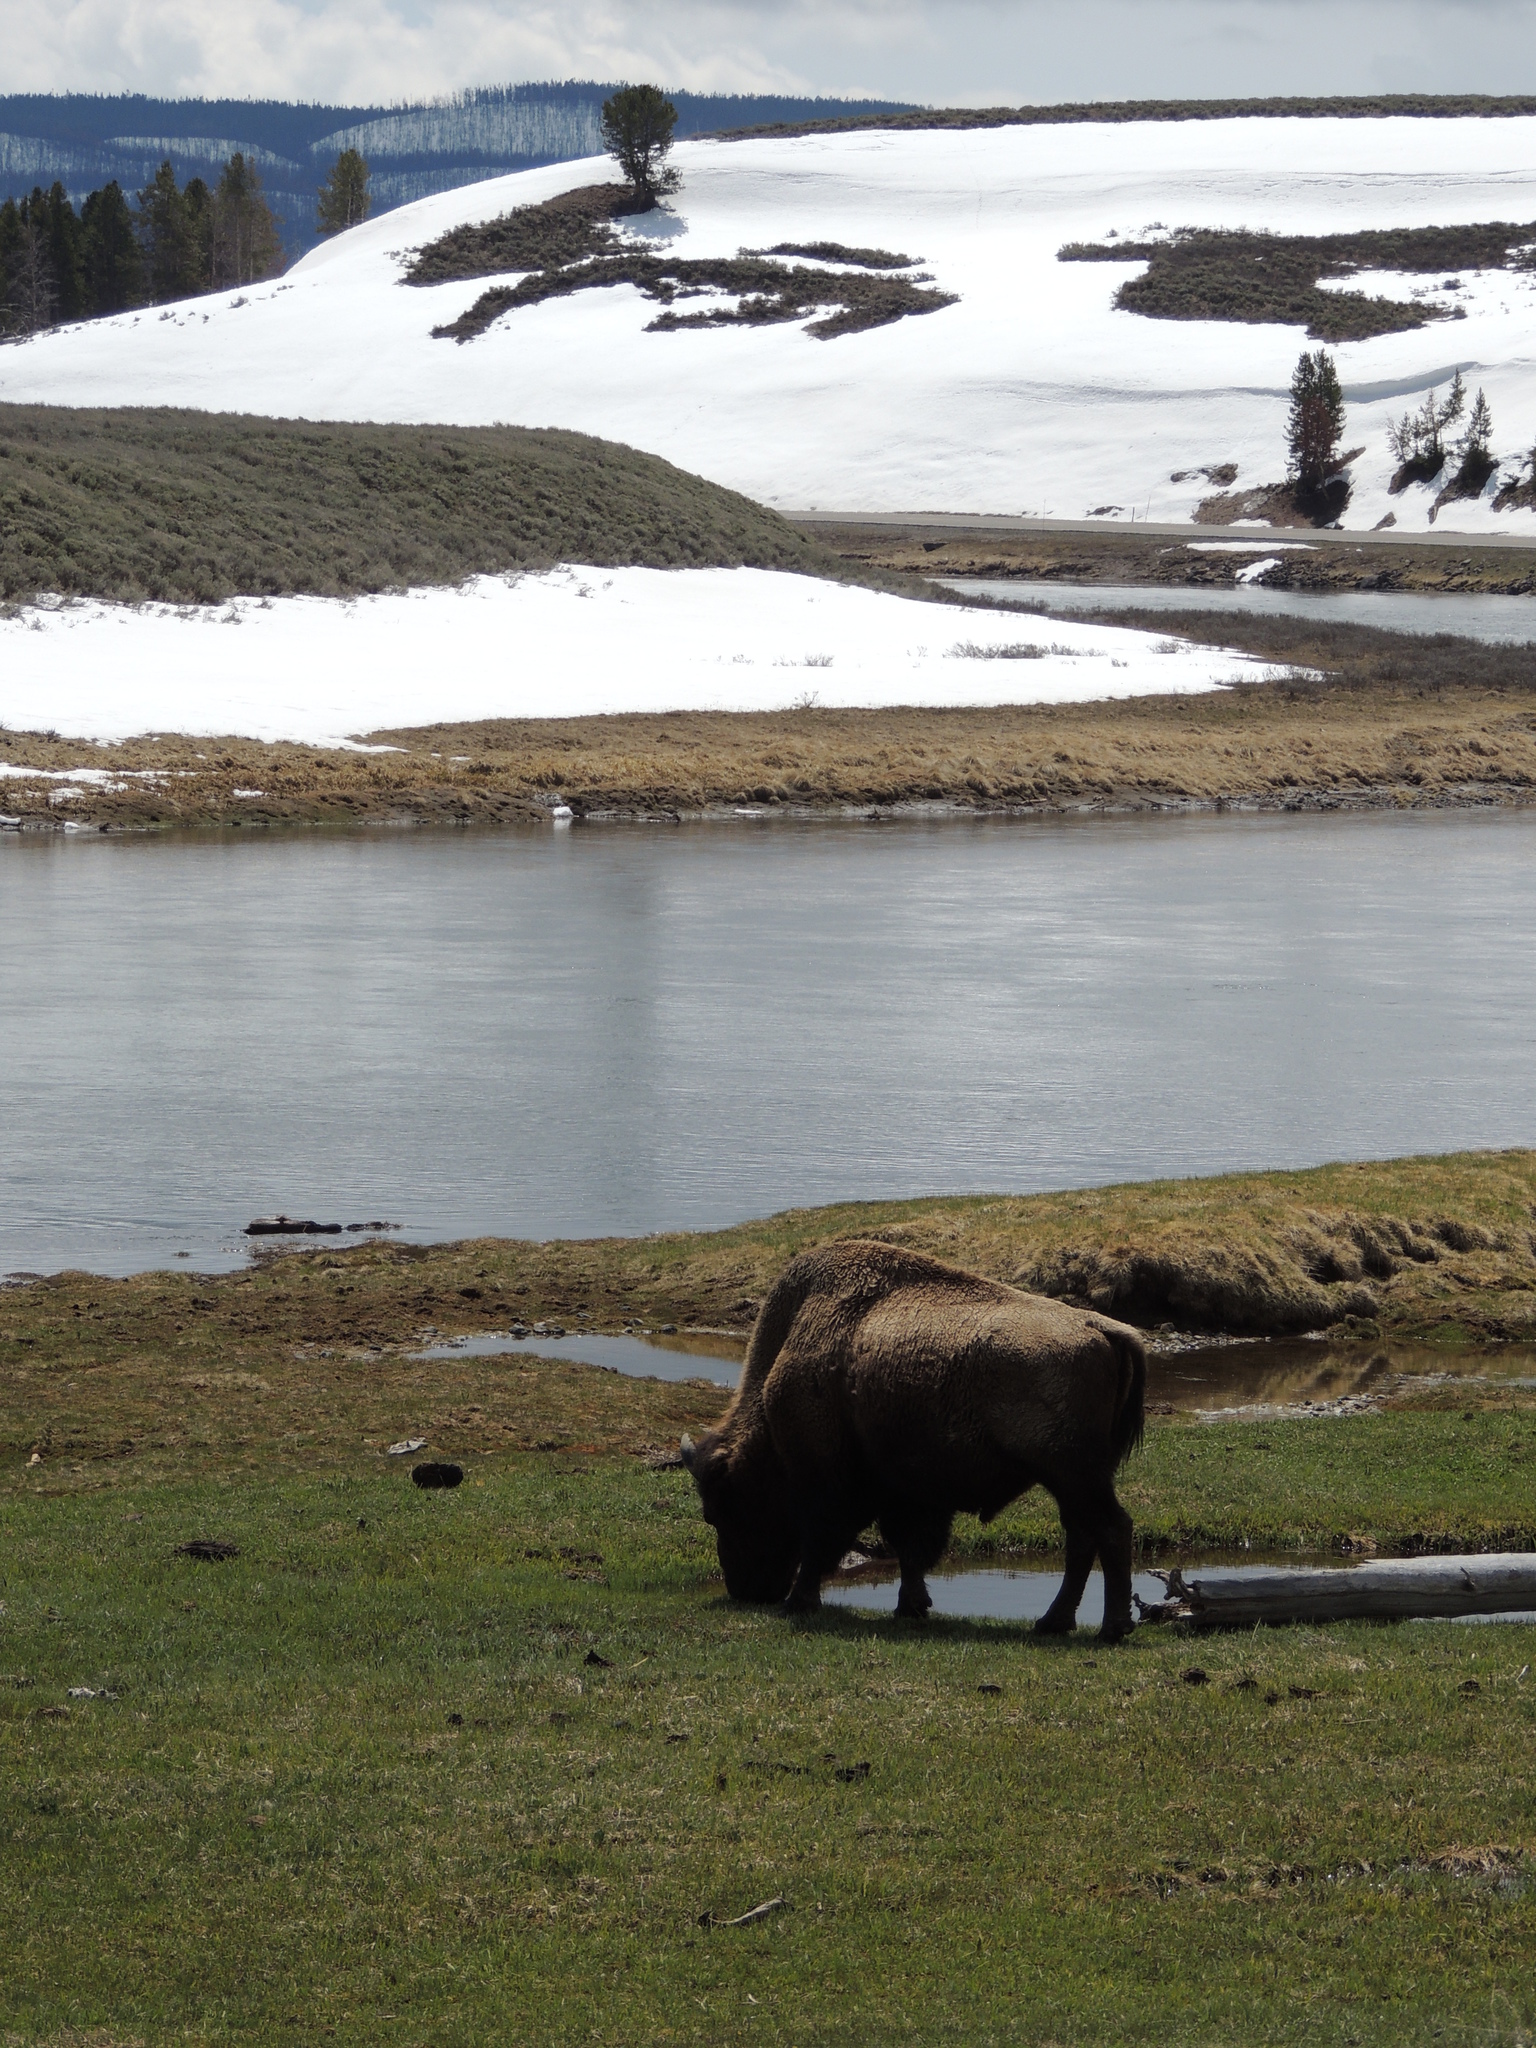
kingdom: Animalia
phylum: Chordata
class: Mammalia
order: Artiodactyla
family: Bovidae
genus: Bison
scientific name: Bison bison
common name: American bison
